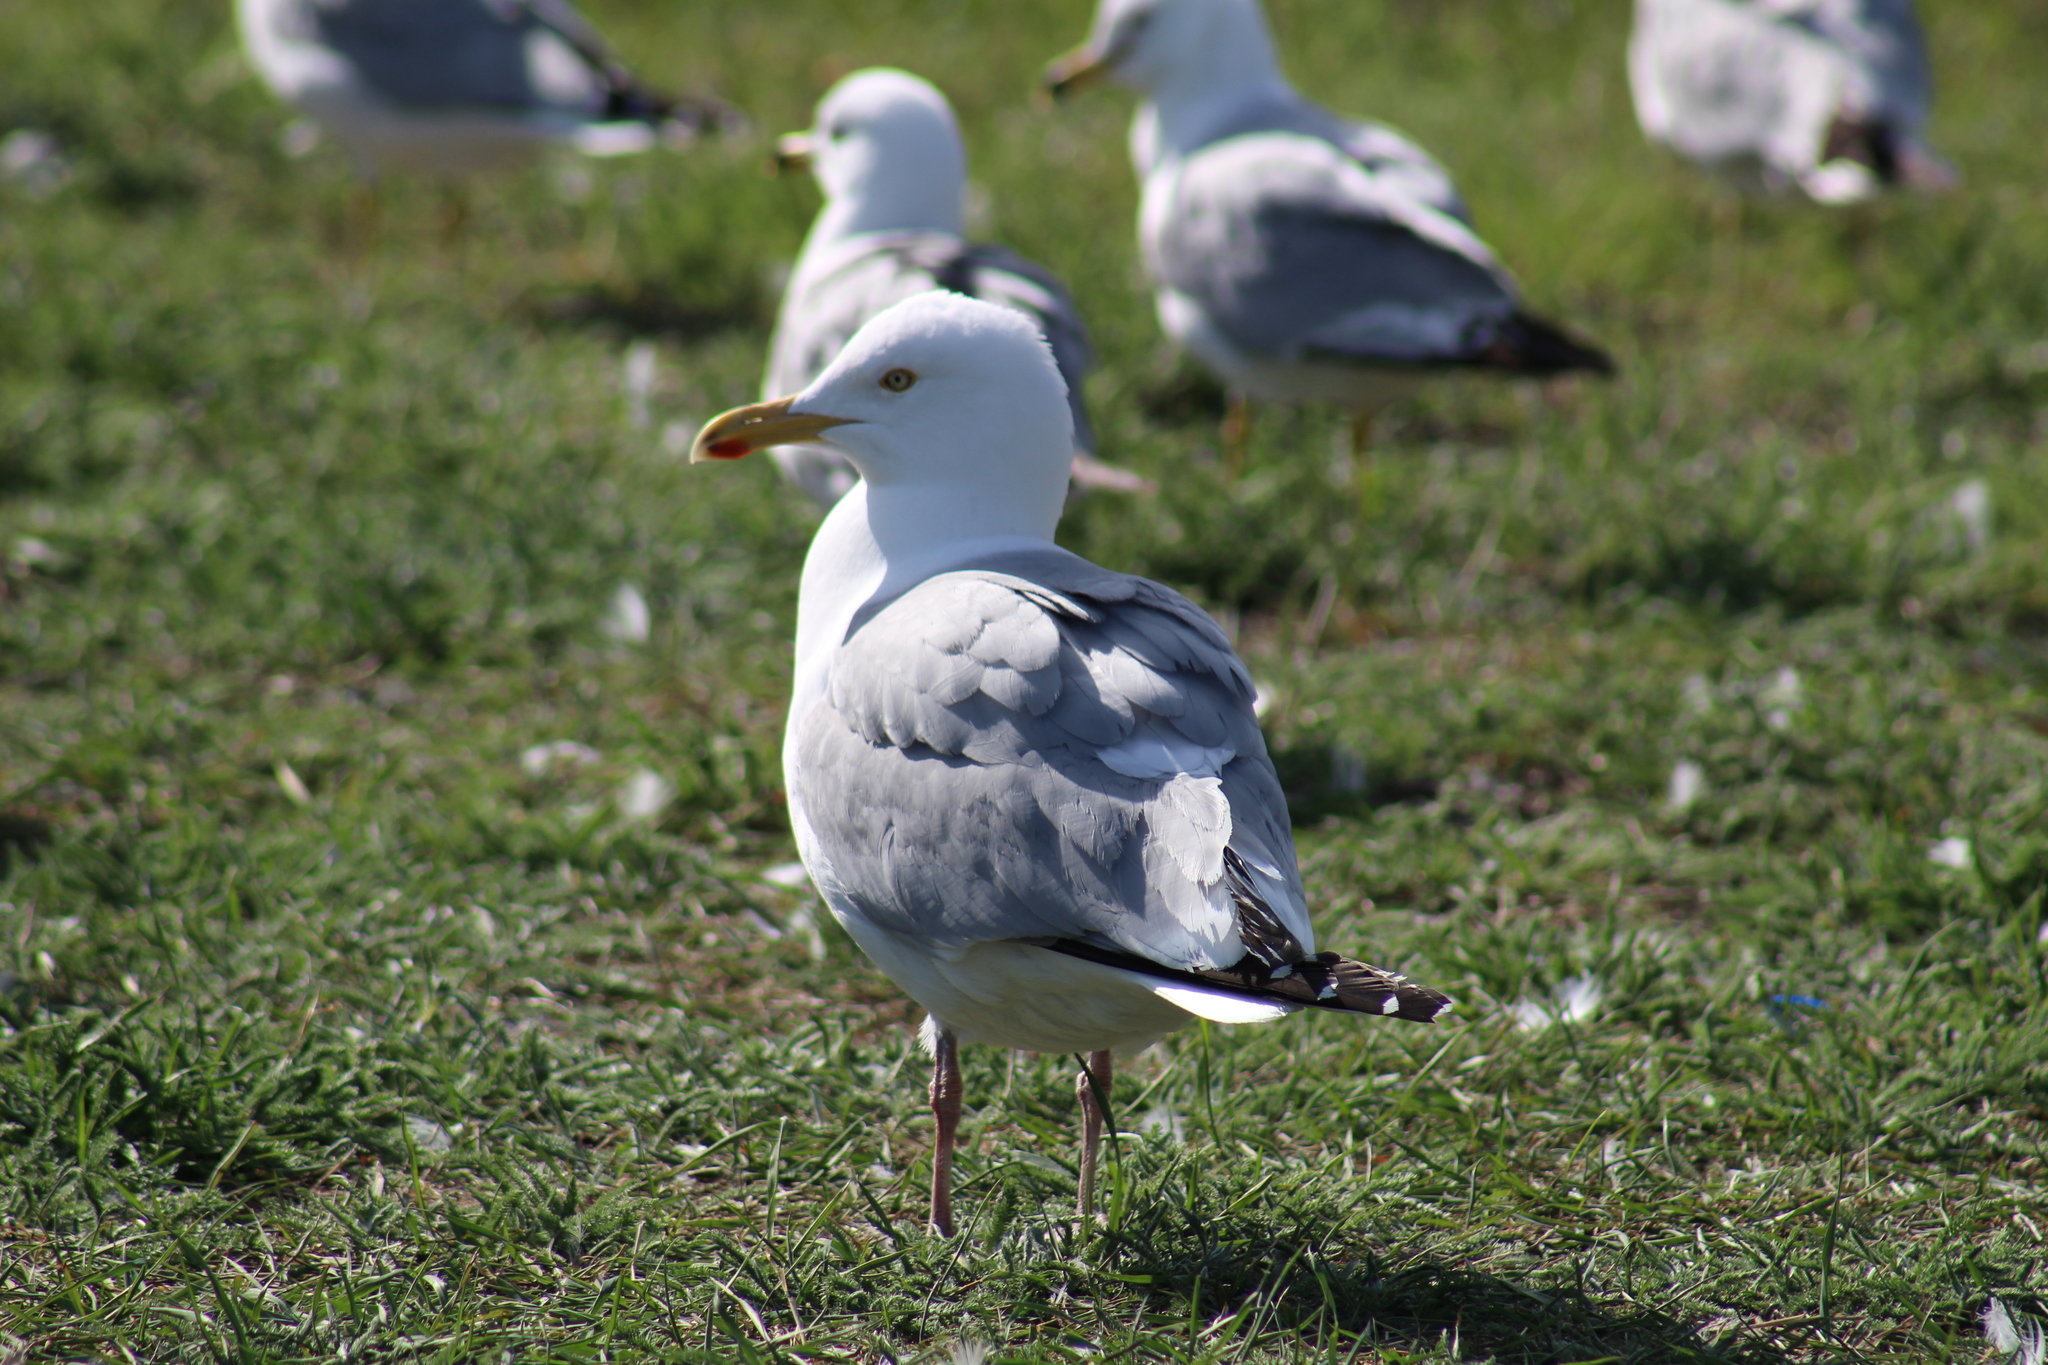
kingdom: Animalia
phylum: Chordata
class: Aves
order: Charadriiformes
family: Laridae
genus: Larus
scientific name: Larus argentatus
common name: Herring gull
